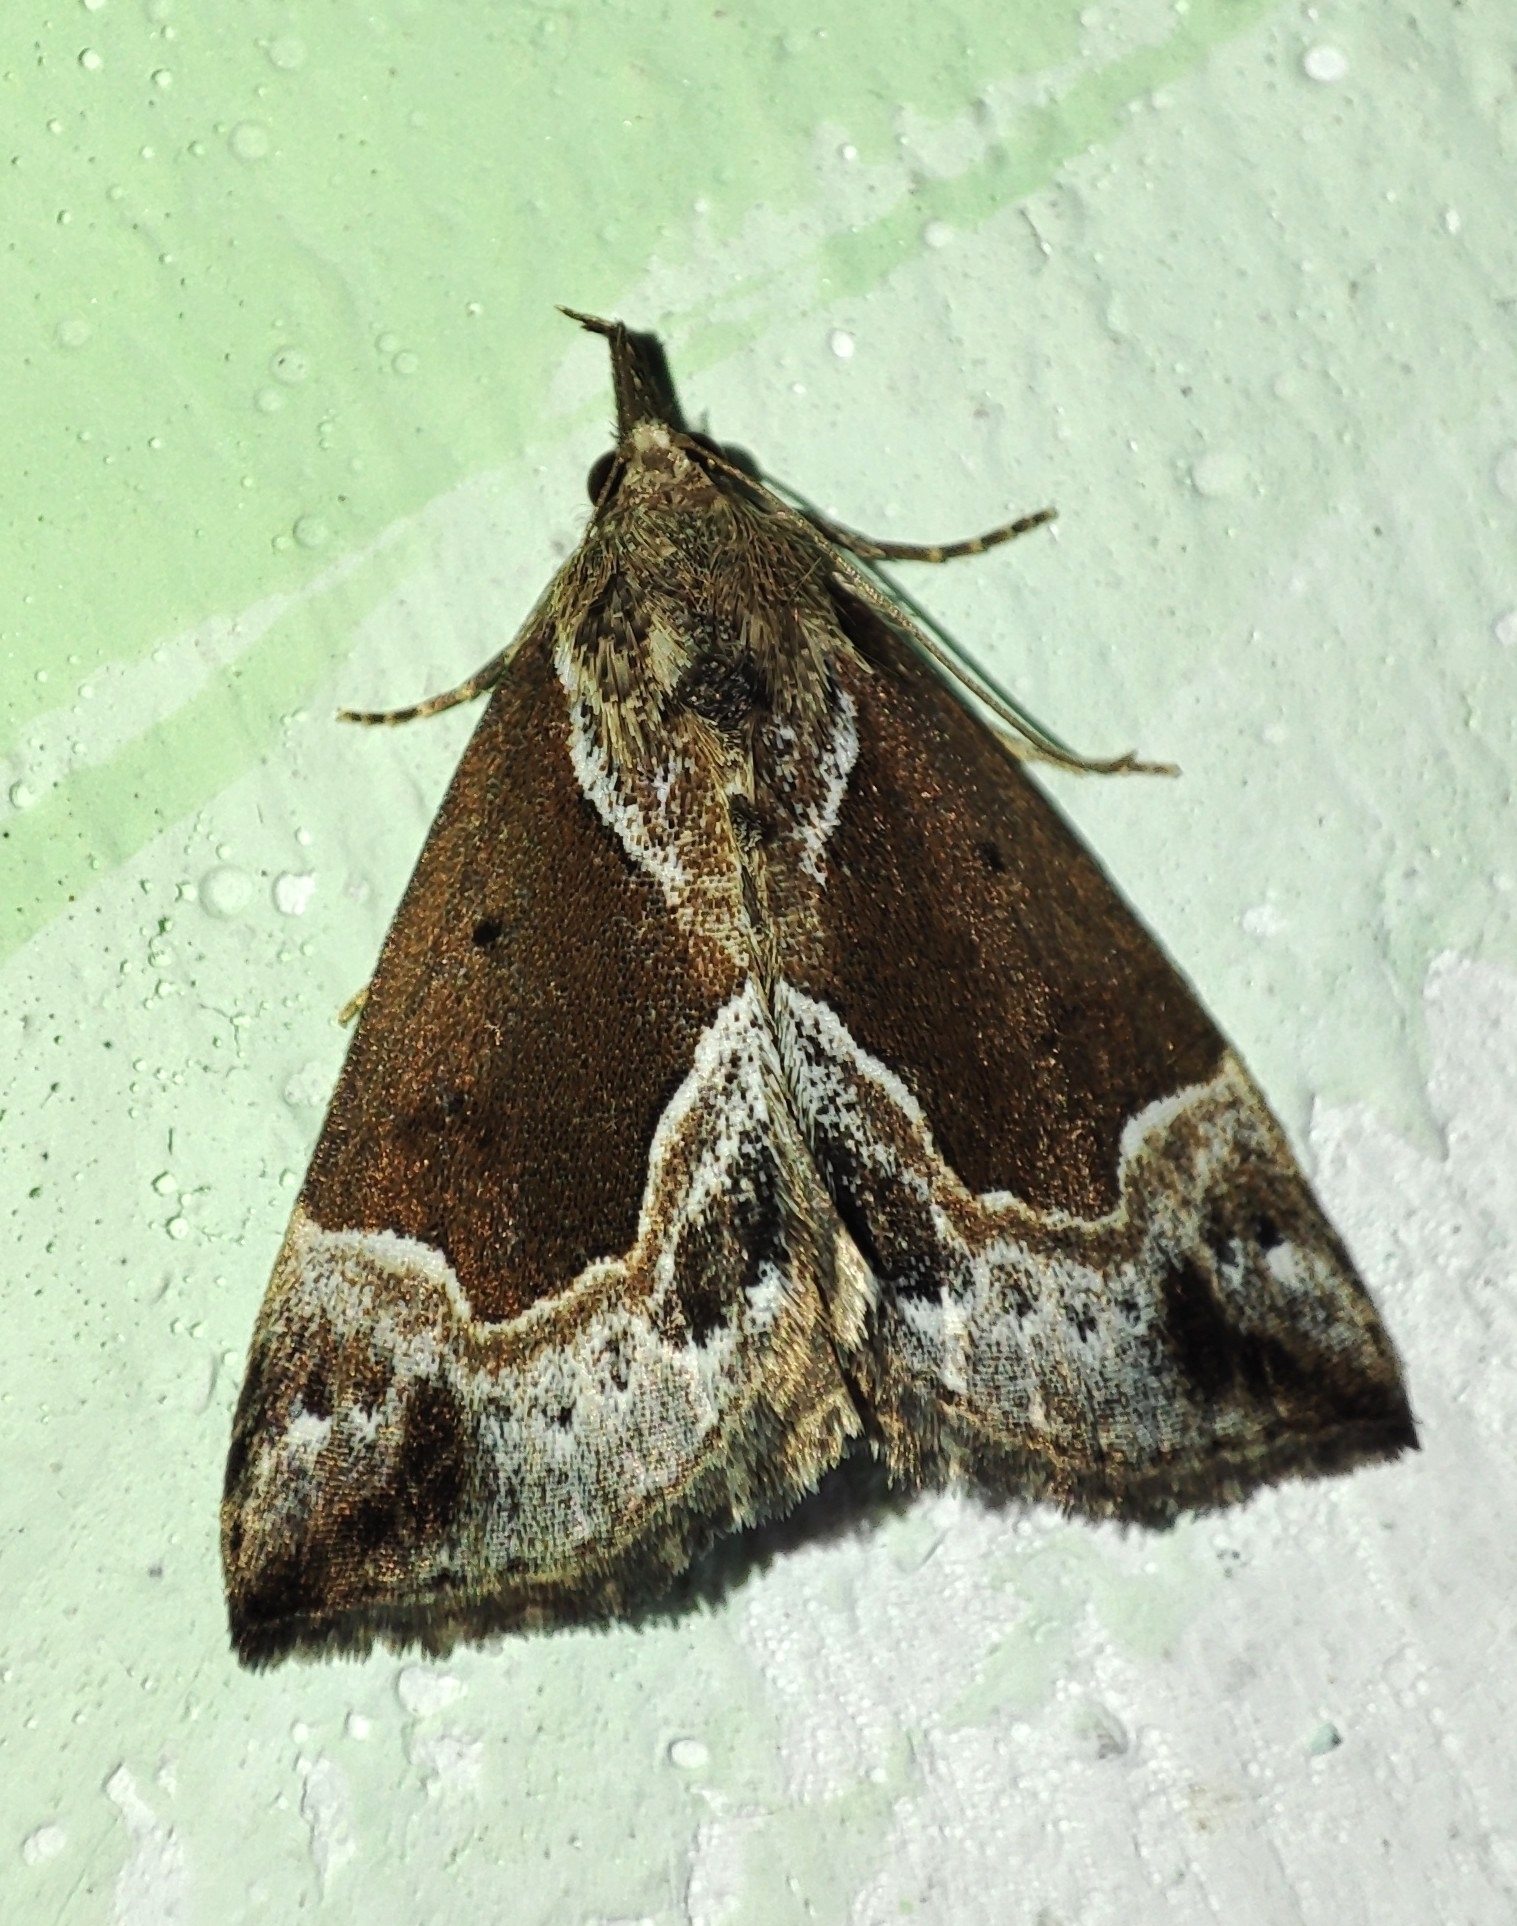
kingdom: Animalia
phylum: Arthropoda
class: Insecta
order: Lepidoptera
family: Erebidae
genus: Hypena
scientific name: Hypena crassalis
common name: Beautiful snout
